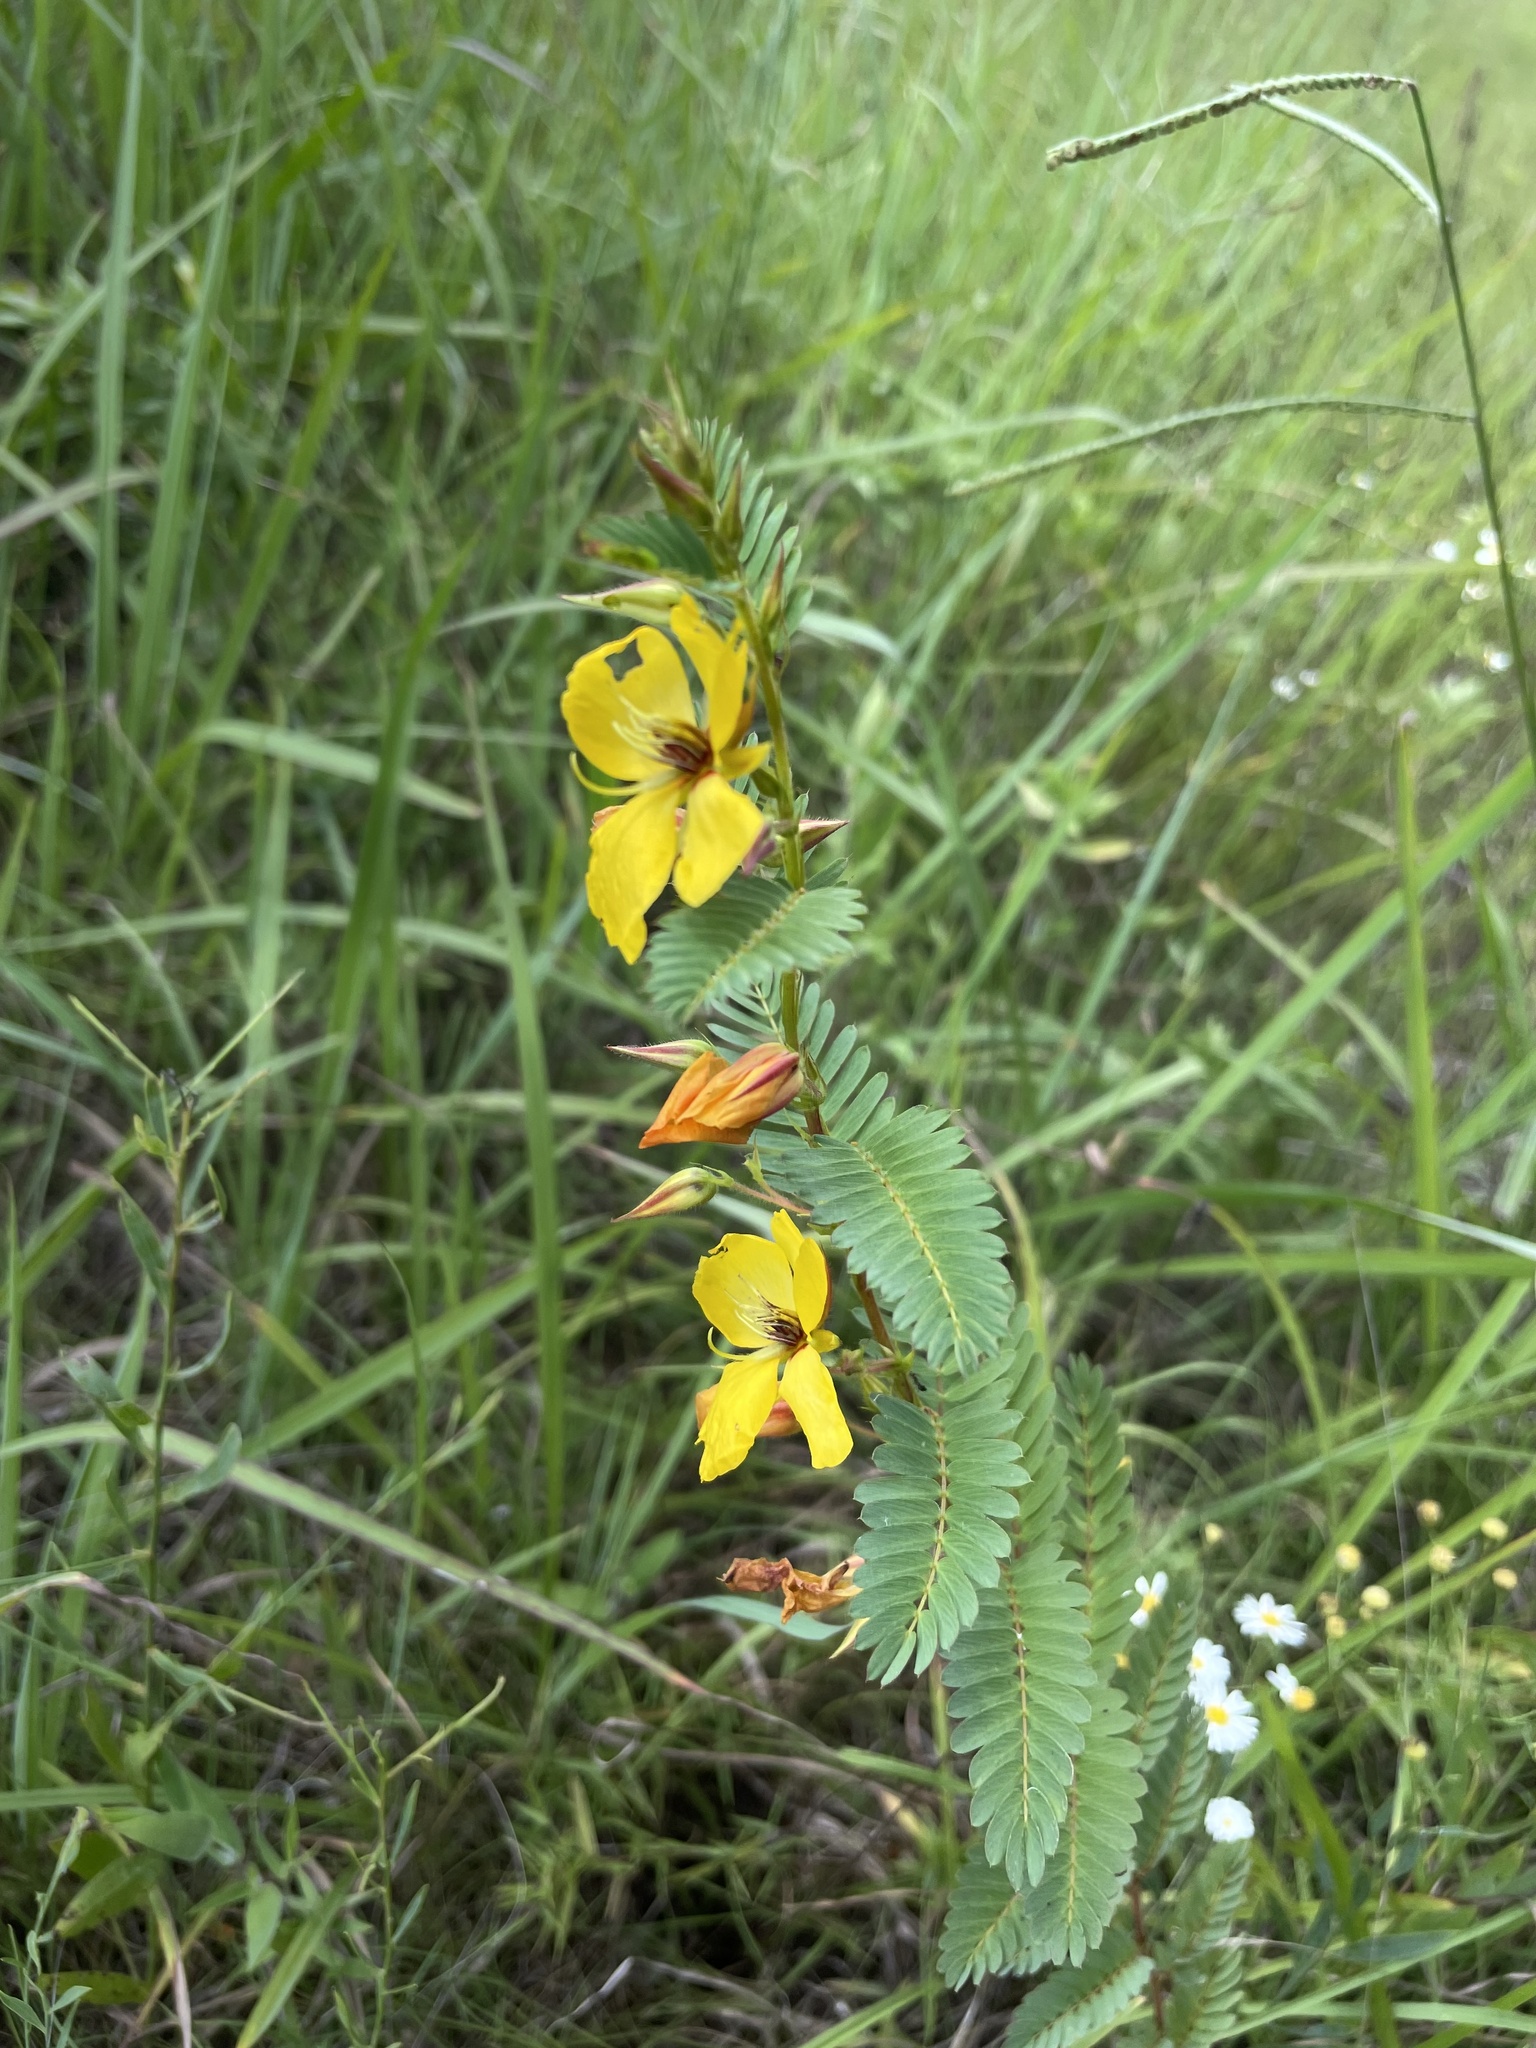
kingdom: Plantae
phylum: Tracheophyta
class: Magnoliopsida
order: Fabales
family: Fabaceae
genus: Chamaecrista
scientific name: Chamaecrista fasciculata
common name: Golden cassia
